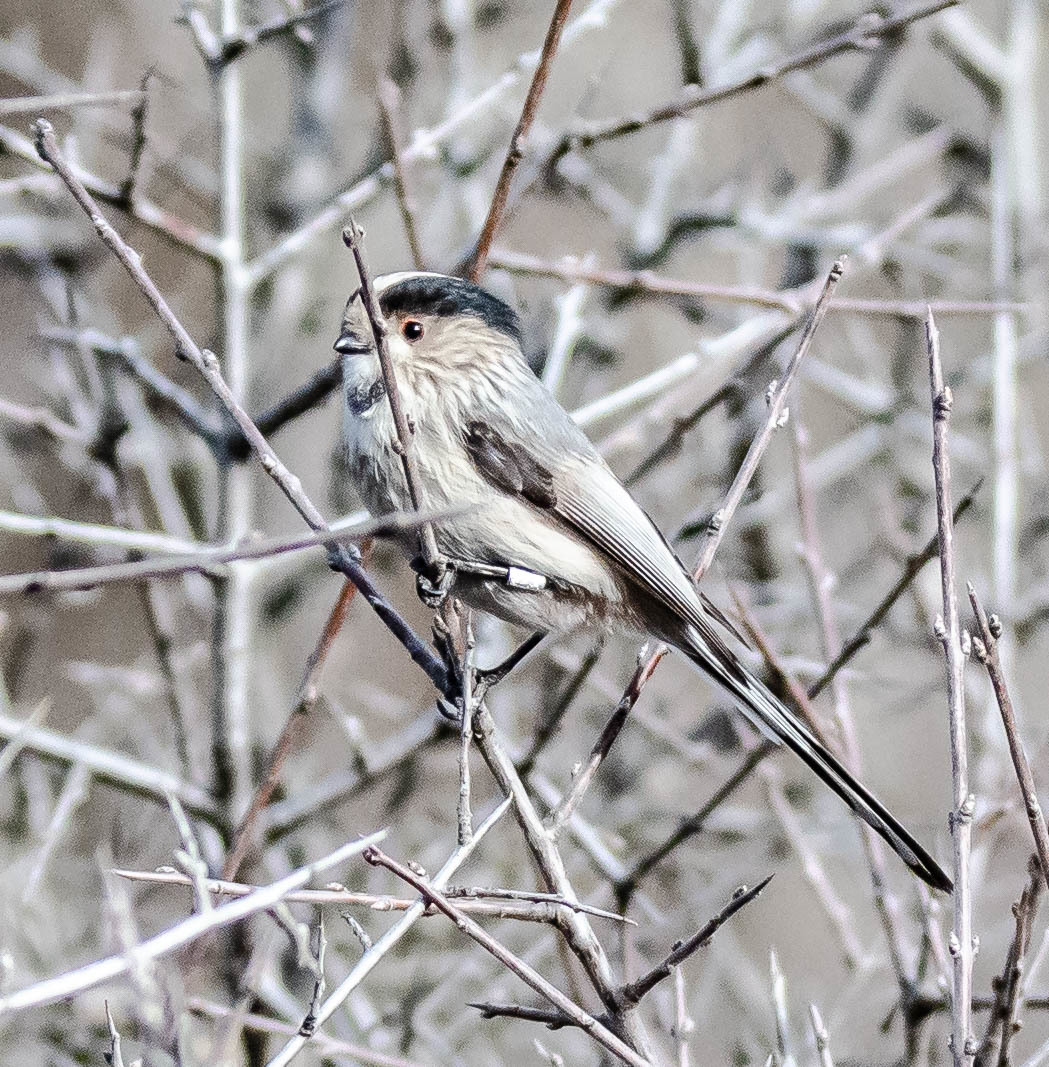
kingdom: Animalia
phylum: Chordata
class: Aves
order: Passeriformes
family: Aegithalidae
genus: Aegithalos
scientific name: Aegithalos caudatus
